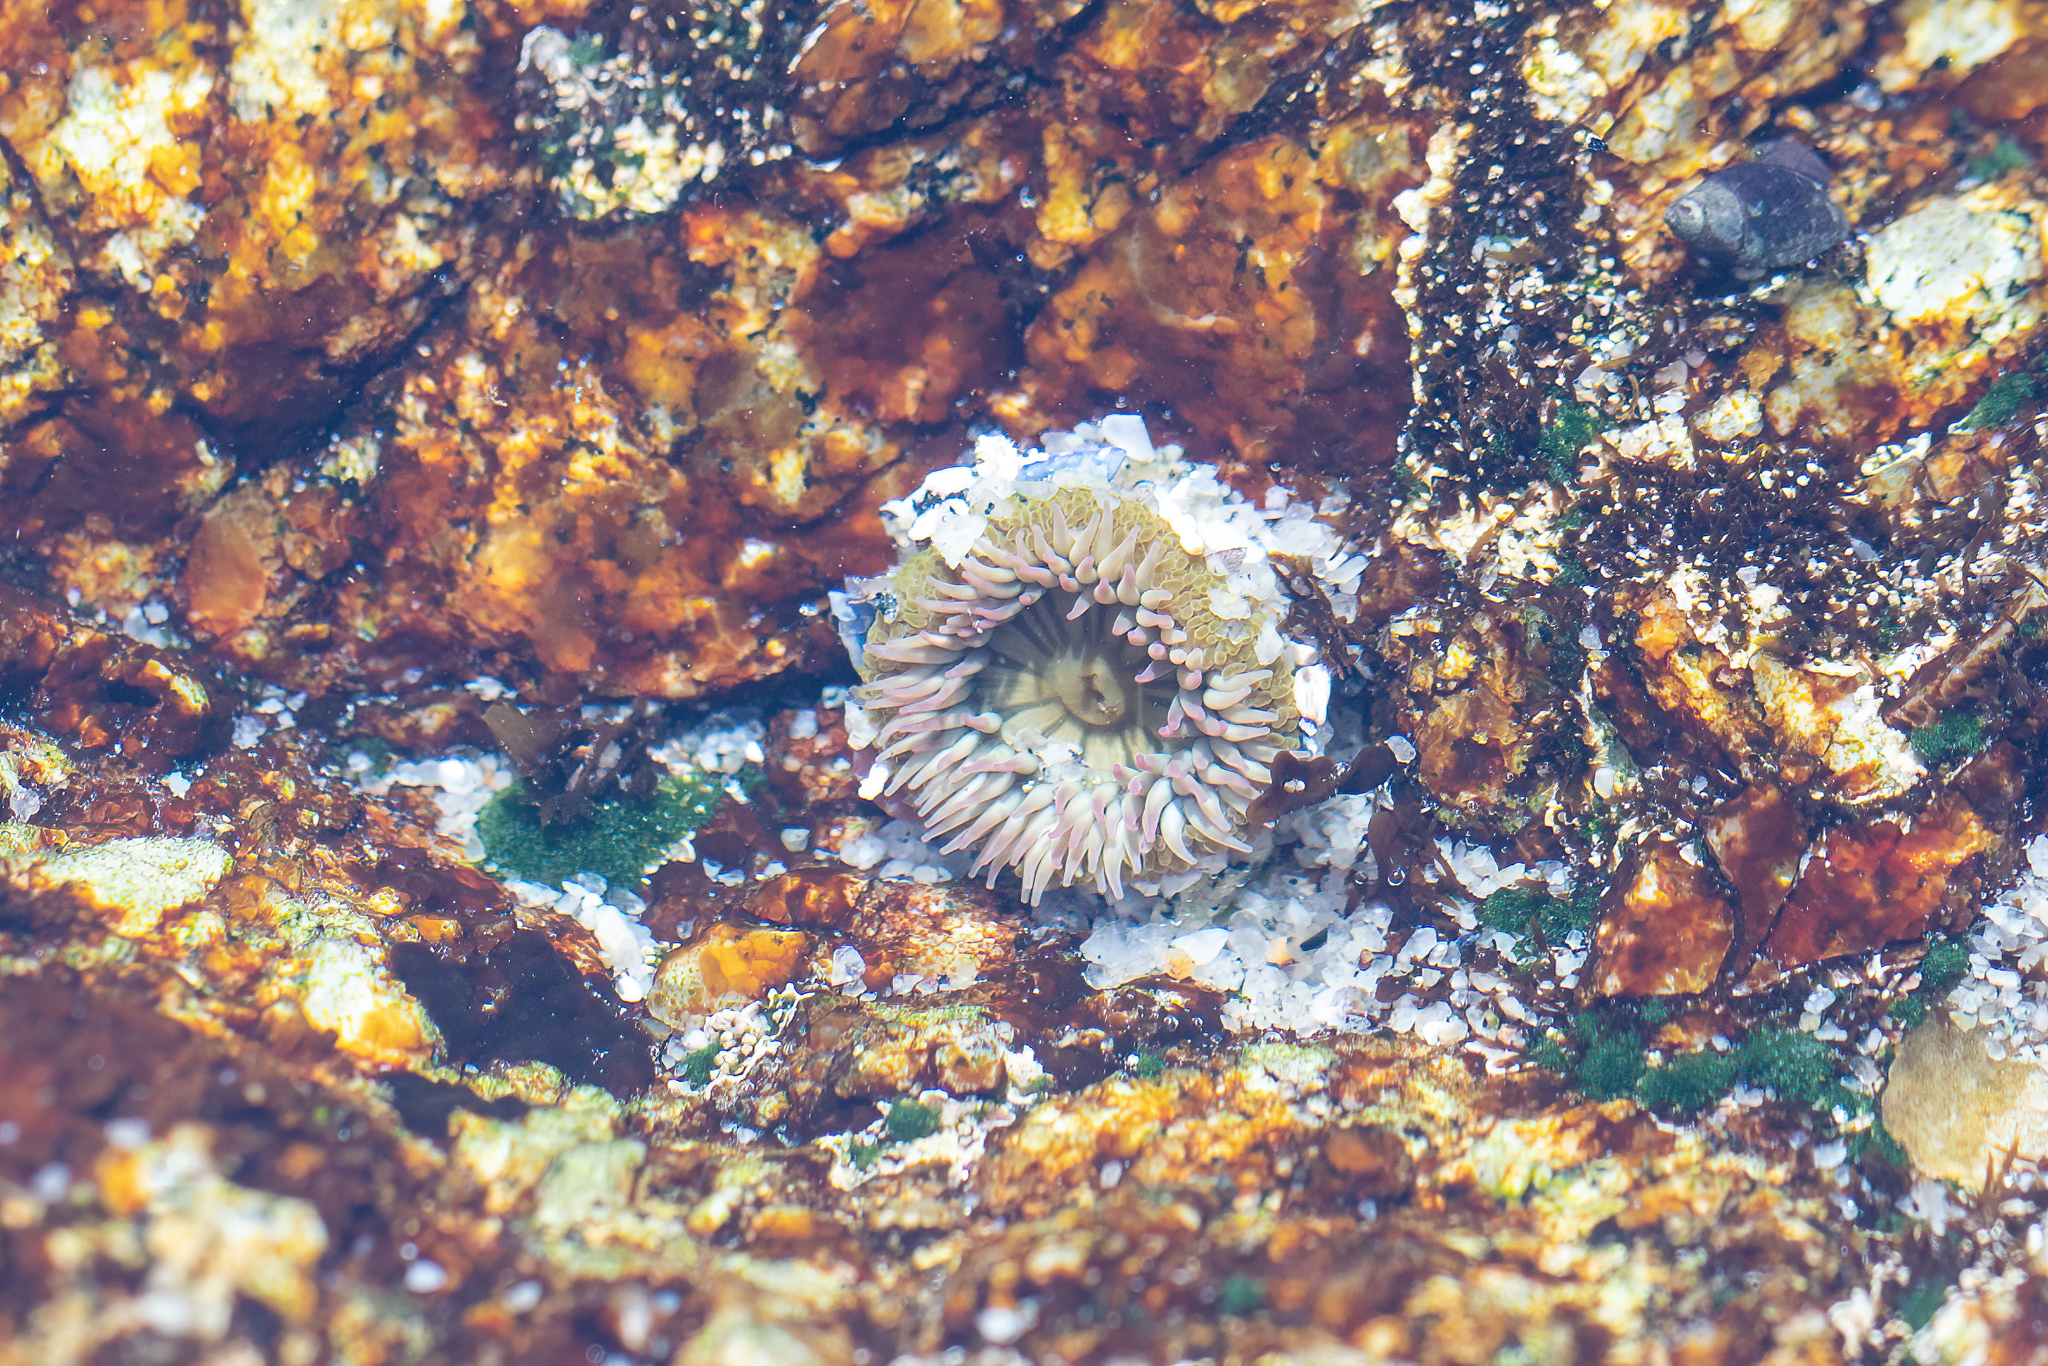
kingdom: Animalia
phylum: Cnidaria
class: Anthozoa
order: Actiniaria
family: Actiniidae
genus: Anthopleura
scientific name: Anthopleura elegantissima
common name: Clonal anemone
